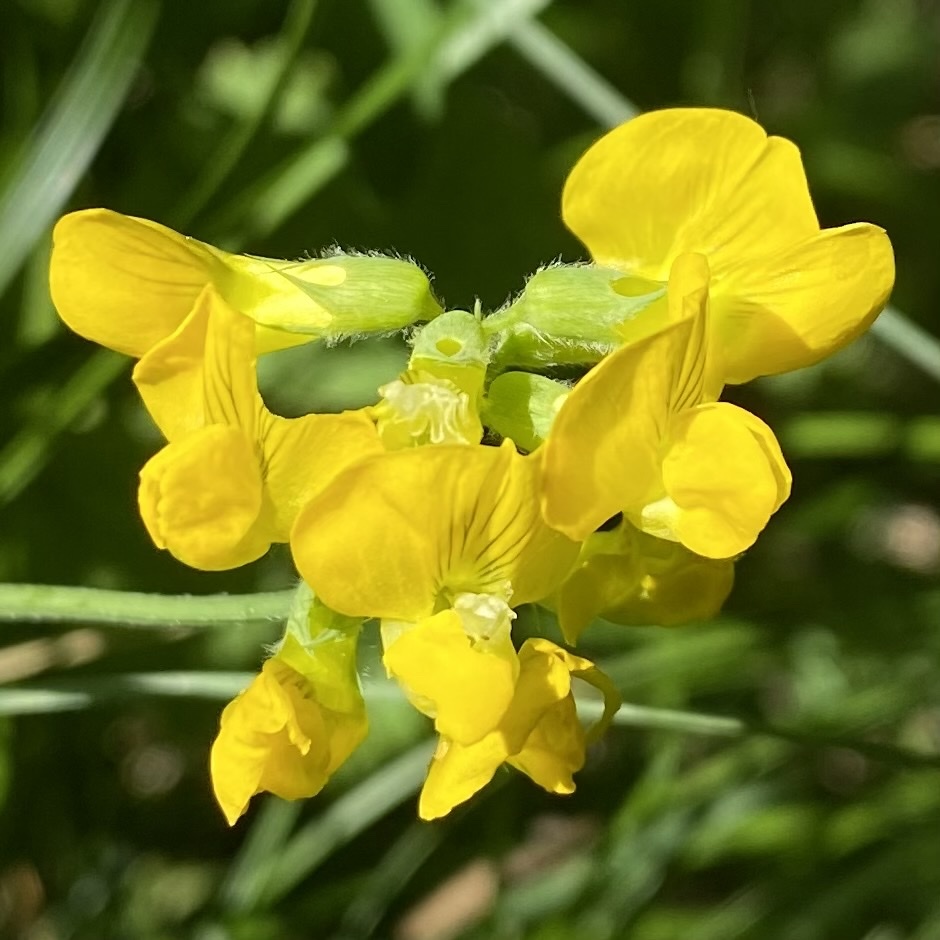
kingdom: Plantae
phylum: Tracheophyta
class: Magnoliopsida
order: Fabales
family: Fabaceae
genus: Lathyrus
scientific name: Lathyrus pratensis
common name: Meadow vetchling
